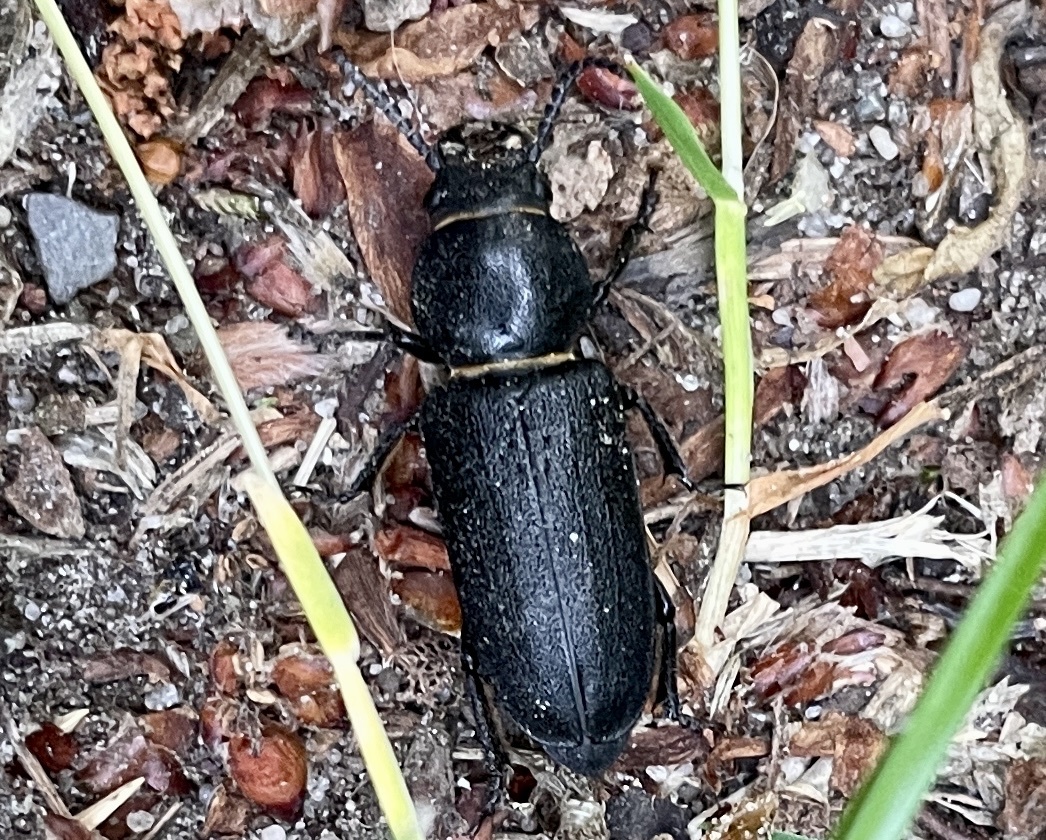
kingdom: Animalia
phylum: Arthropoda
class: Insecta
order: Coleoptera
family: Cerambycidae
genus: Spondylis
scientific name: Spondylis buprestoides
